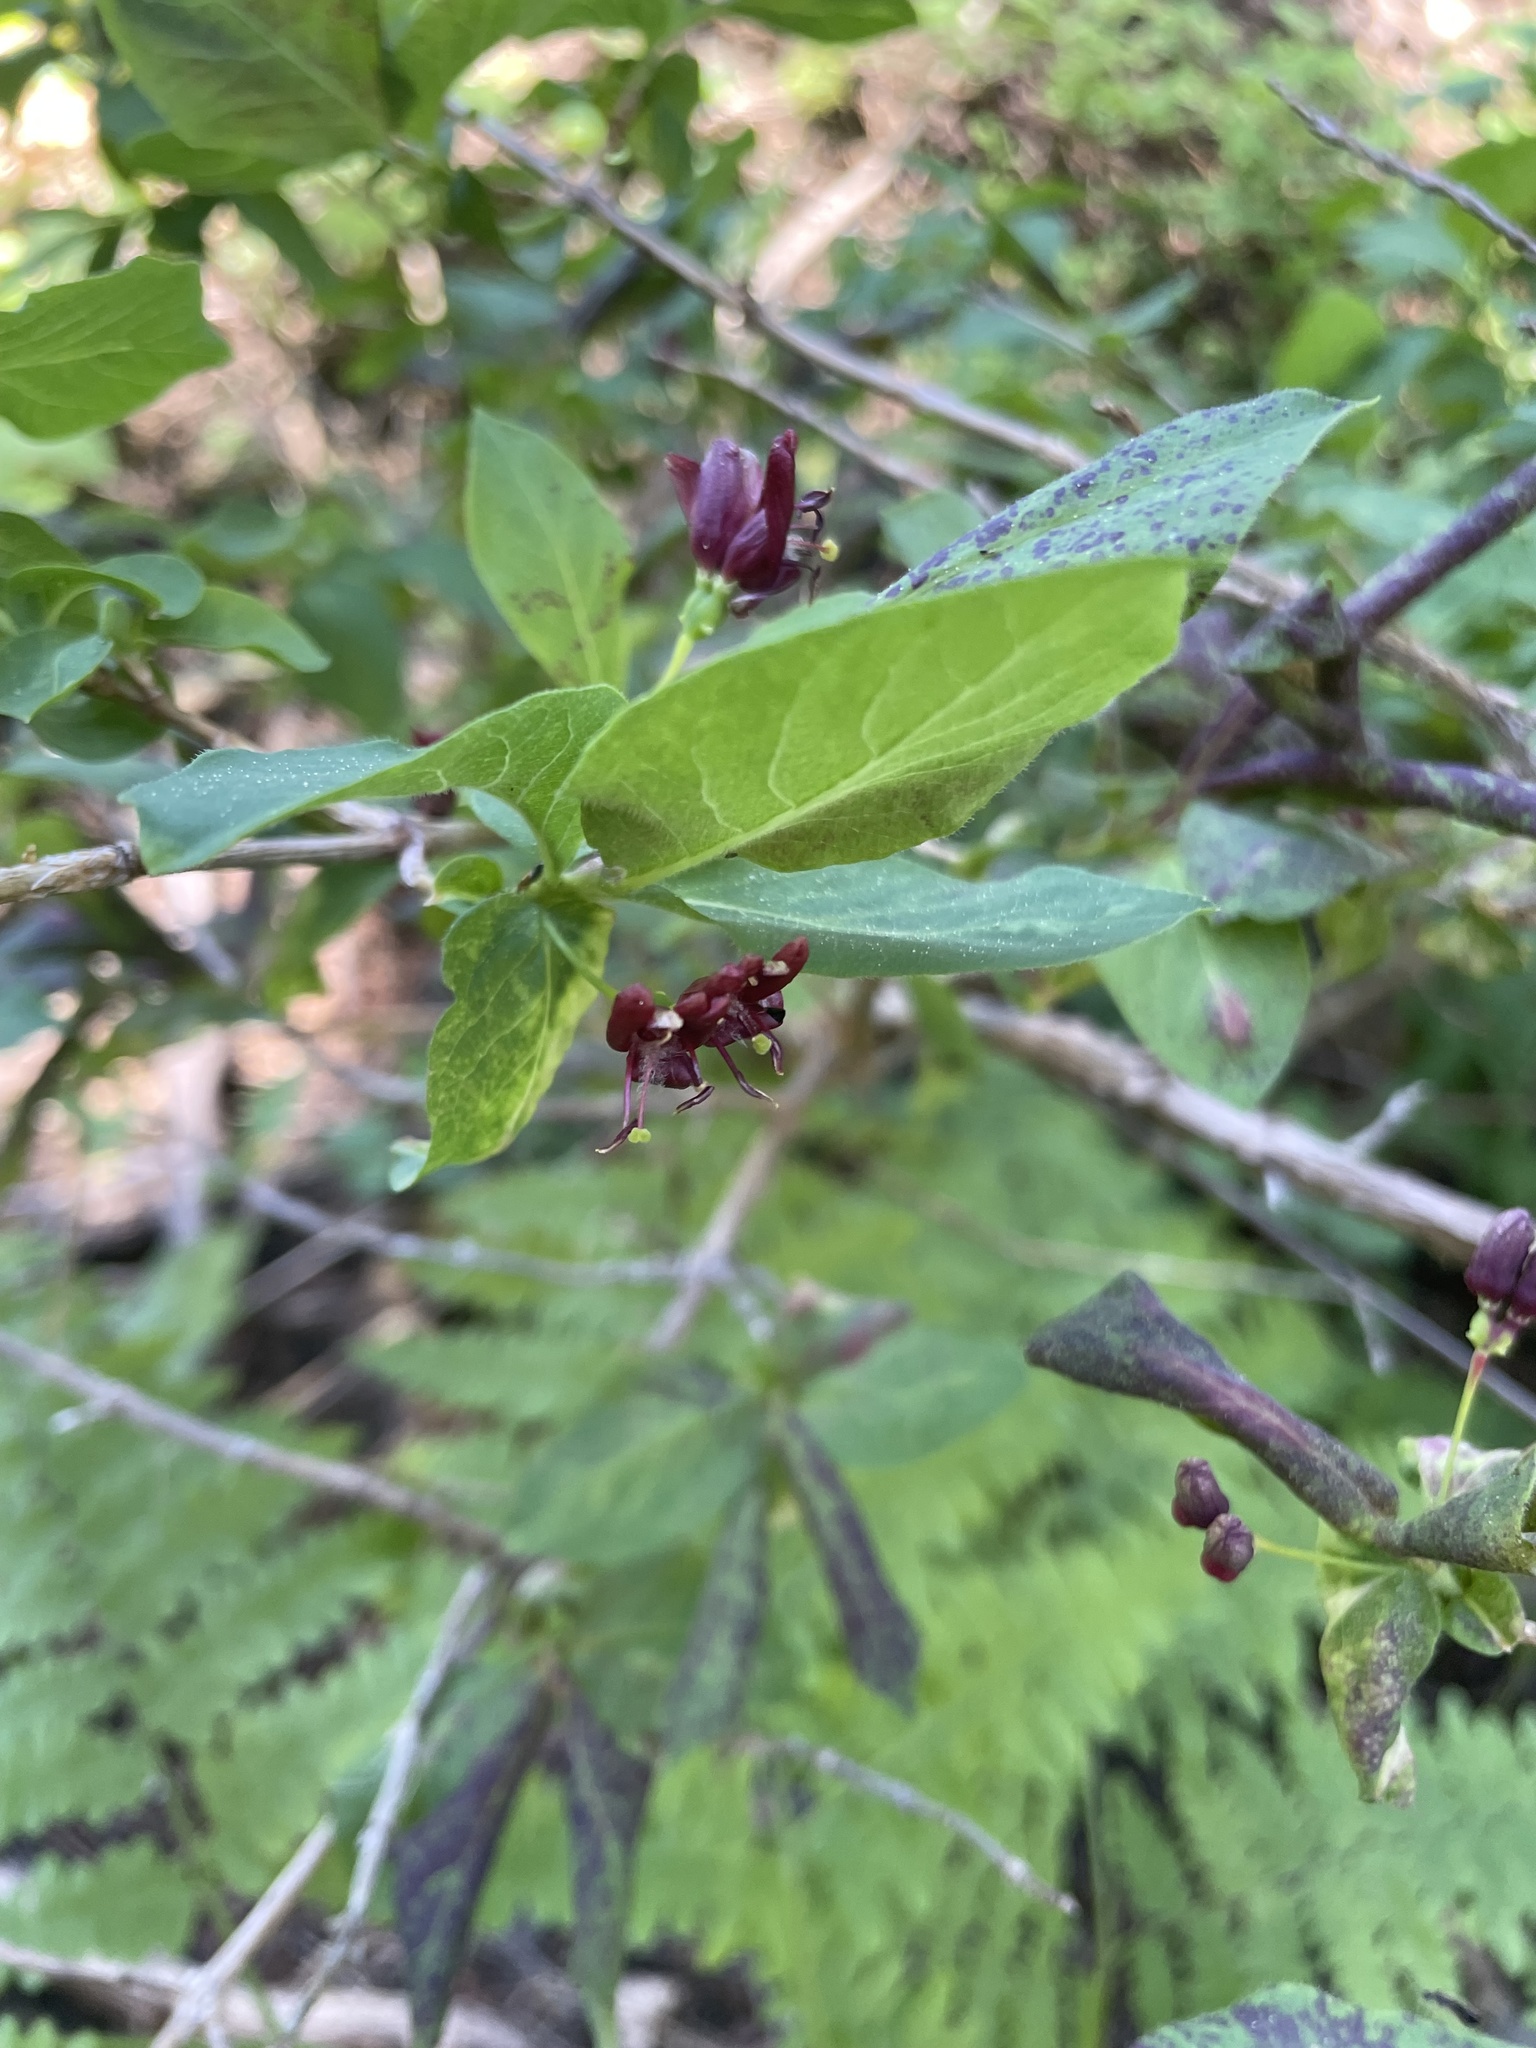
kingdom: Plantae
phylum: Tracheophyta
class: Magnoliopsida
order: Dipsacales
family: Caprifoliaceae
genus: Lonicera
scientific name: Lonicera conjugialis
